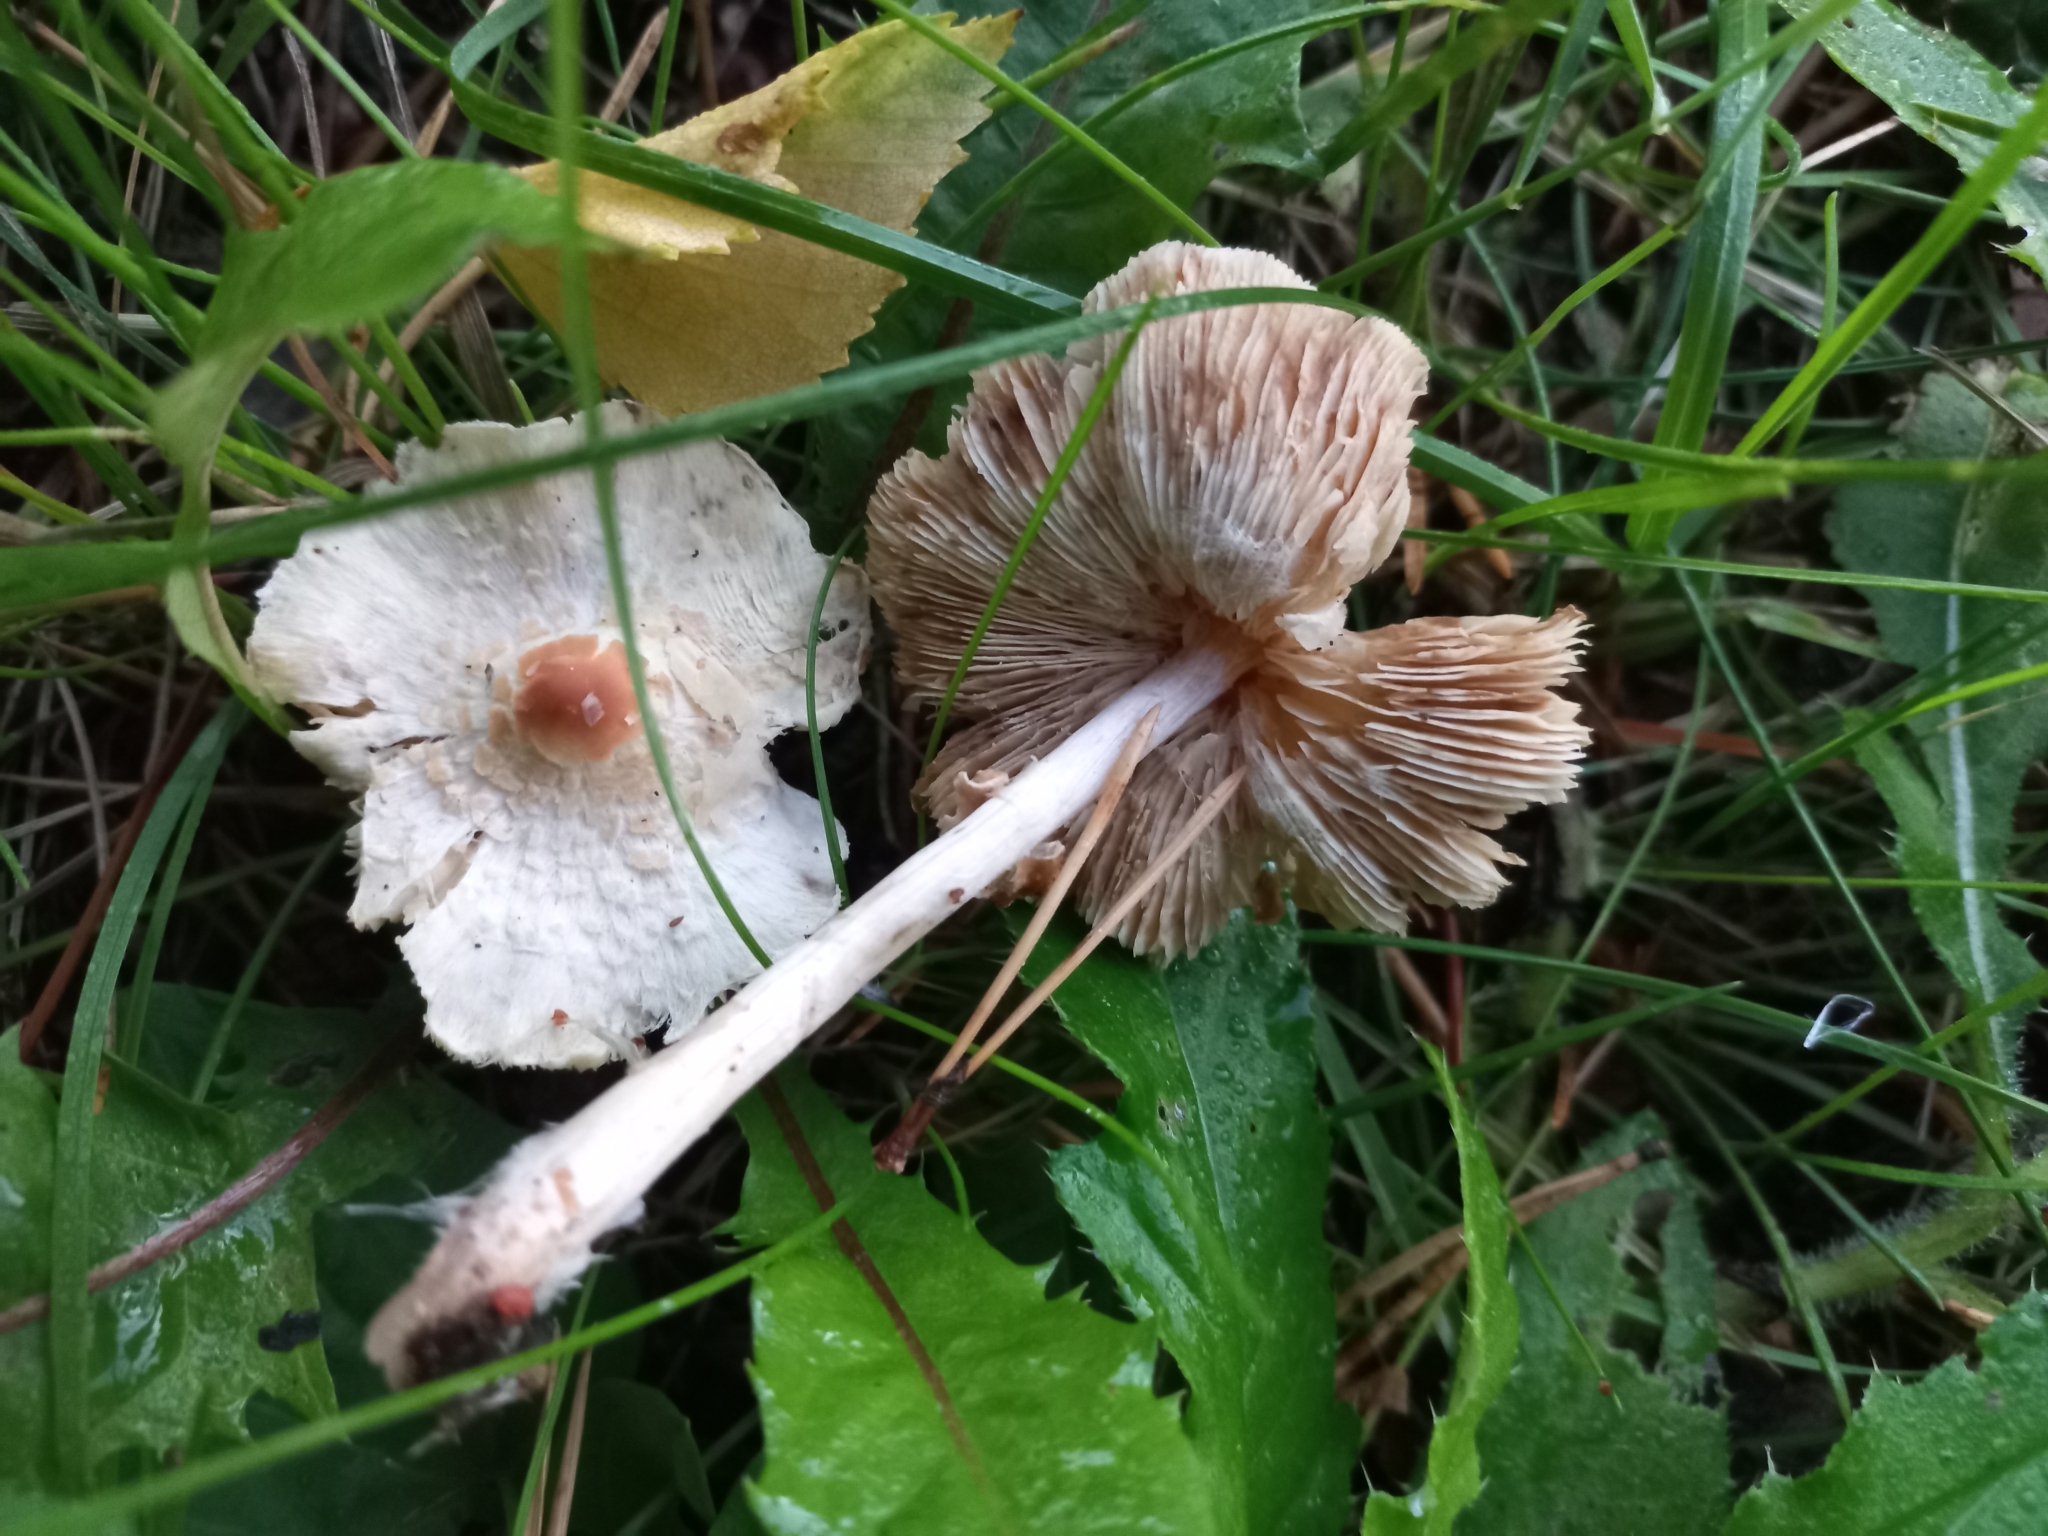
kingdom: Fungi
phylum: Basidiomycota
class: Agaricomycetes
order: Agaricales
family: Agaricaceae
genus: Lepiota
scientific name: Lepiota cristata
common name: Stinking dapperling
